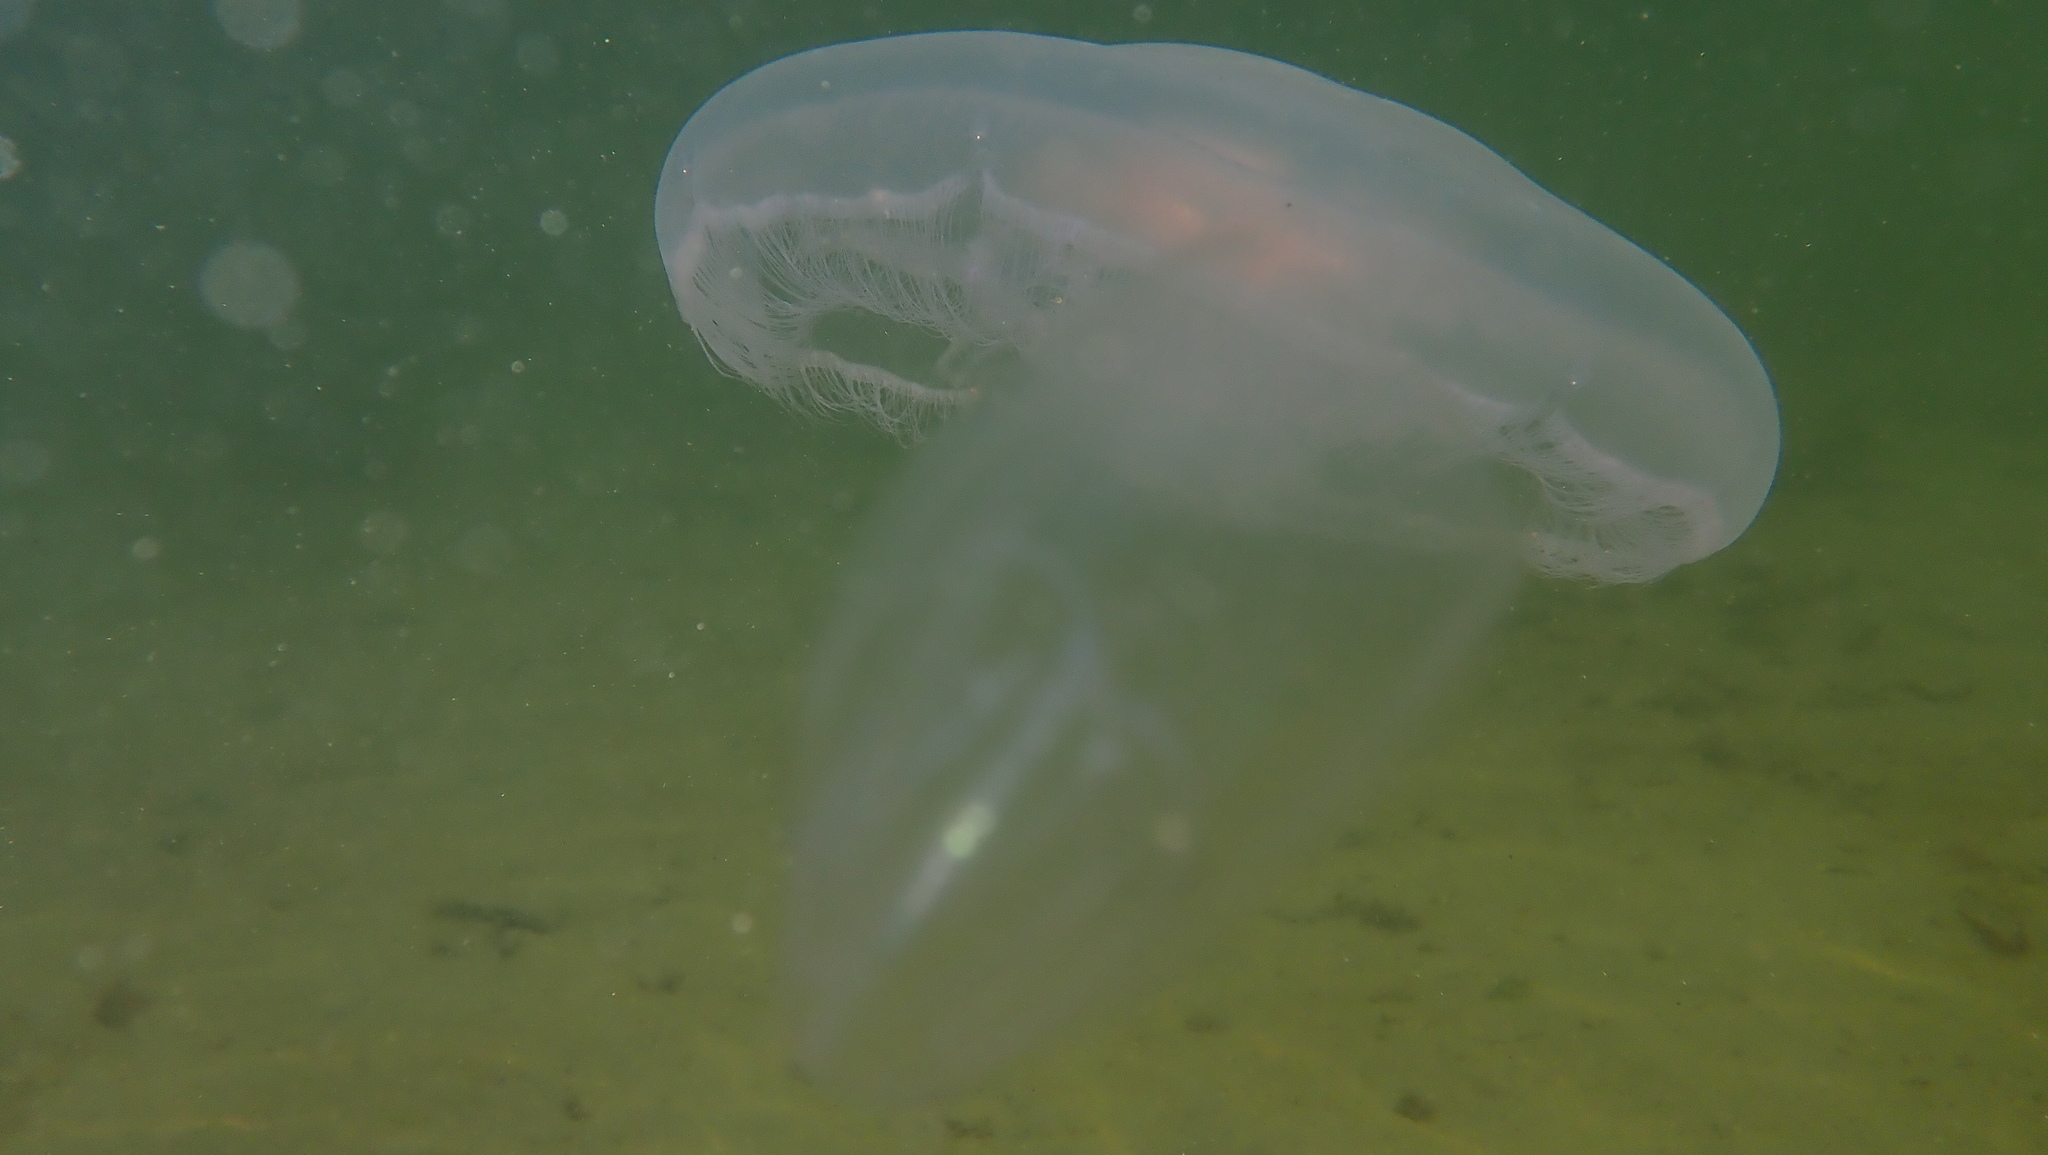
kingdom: Animalia
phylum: Cnidaria
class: Scyphozoa
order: Semaeostomeae
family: Ulmaridae
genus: Aurelia
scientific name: Aurelia aurita
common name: Moon jellyfish
